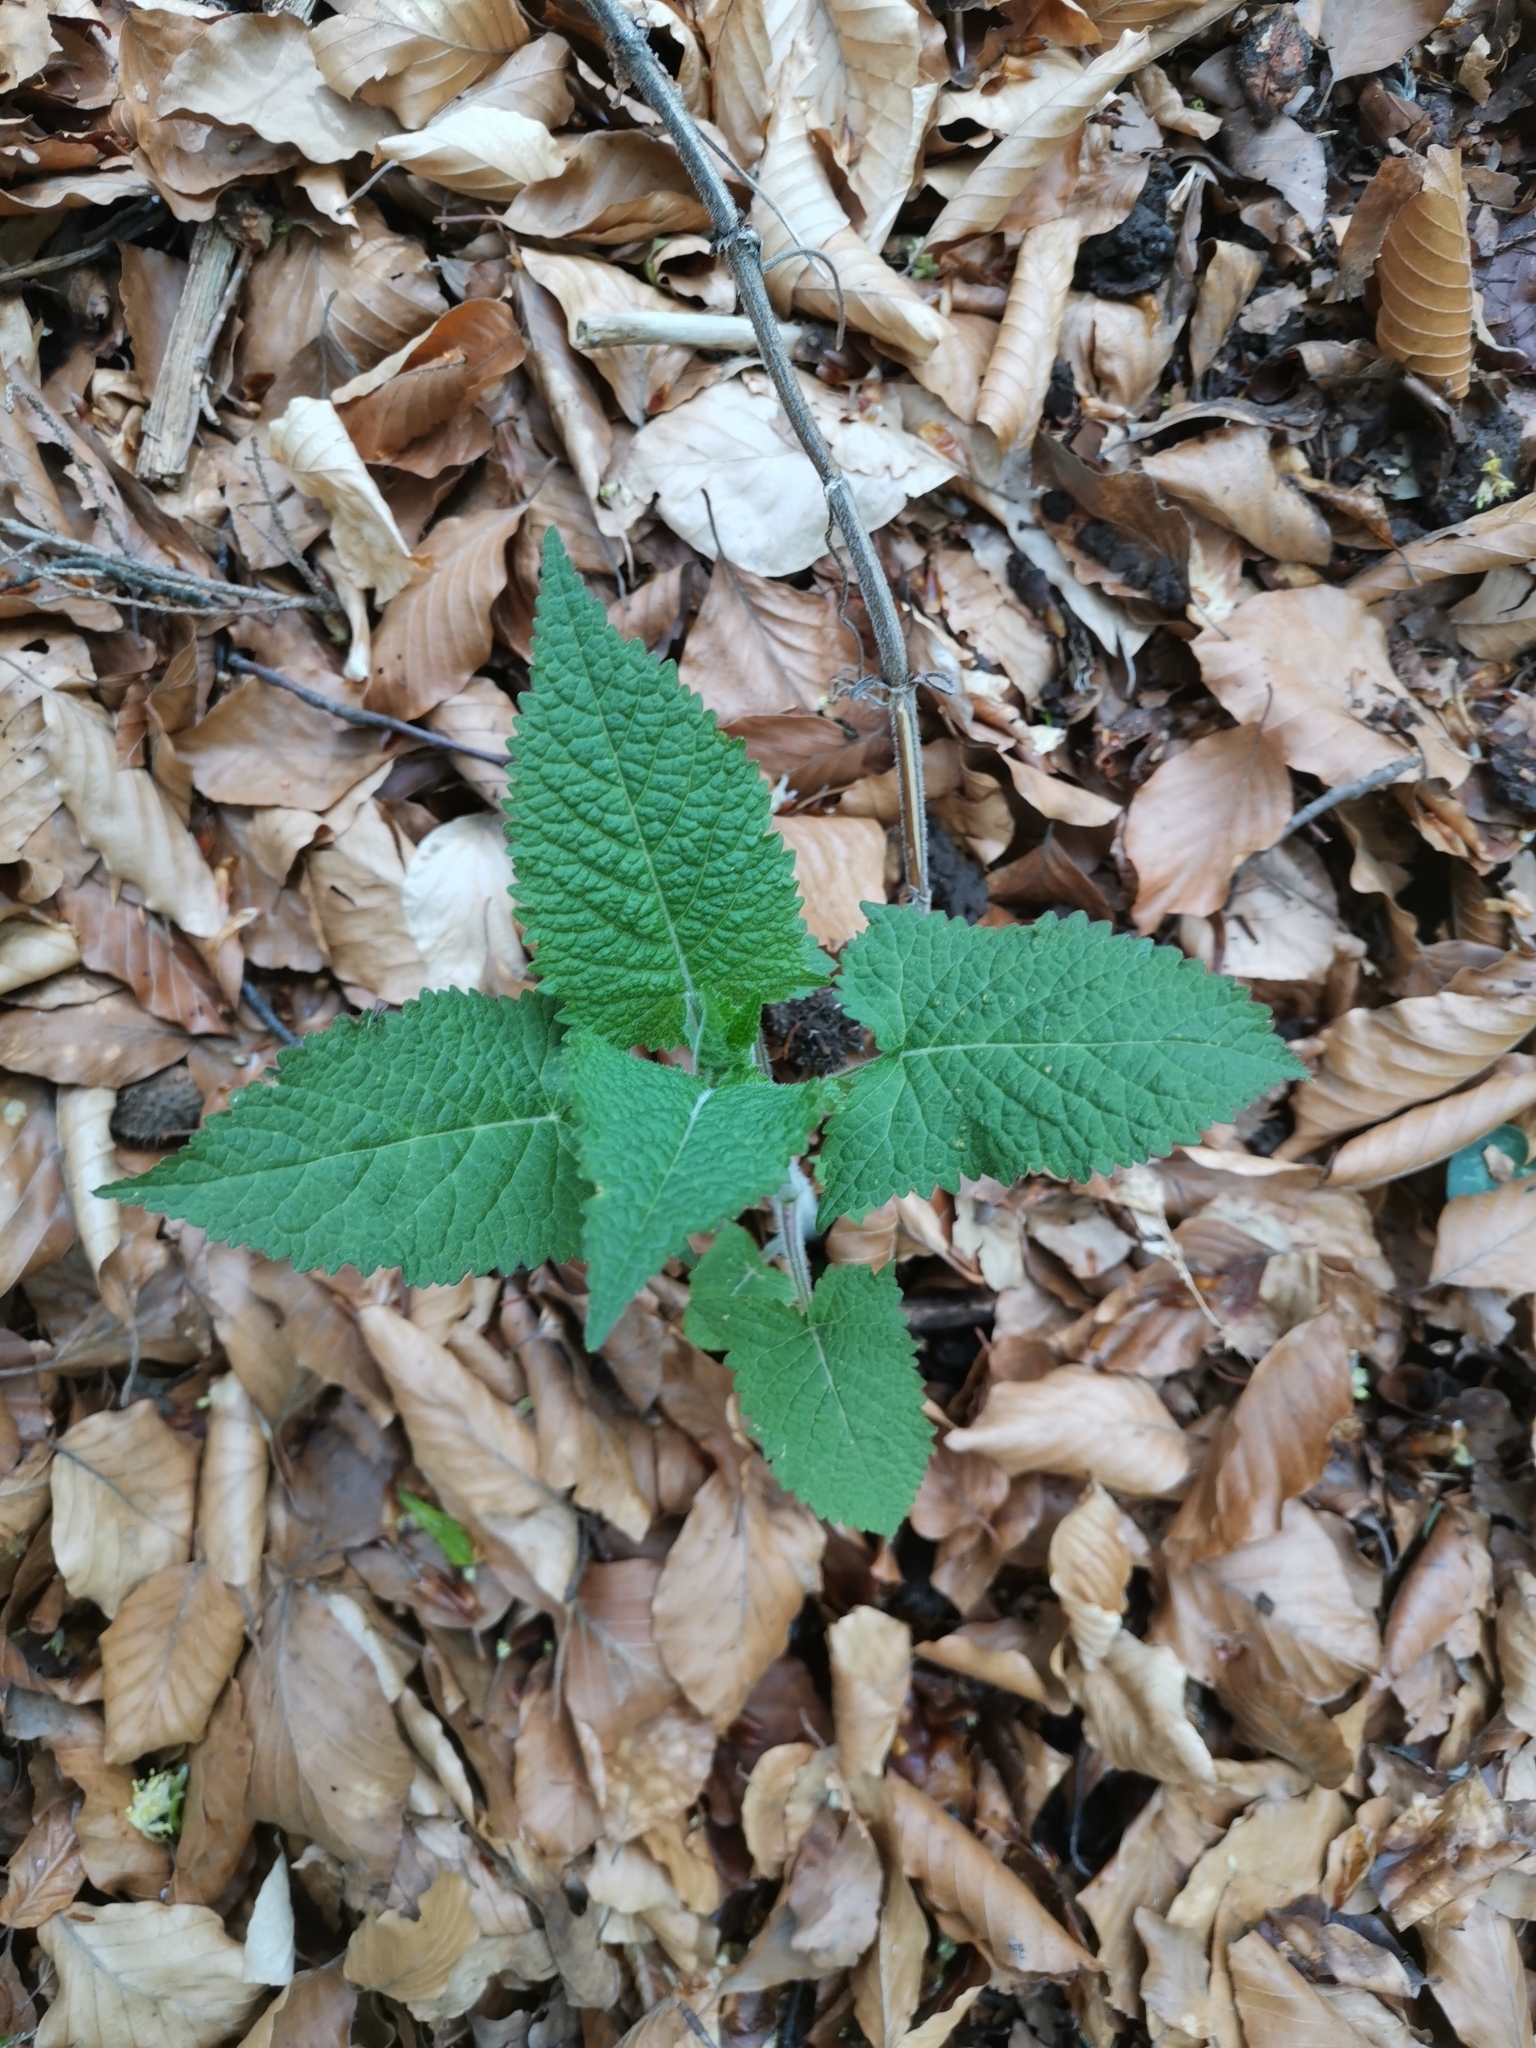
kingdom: Plantae
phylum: Tracheophyta
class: Magnoliopsida
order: Lamiales
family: Lamiaceae
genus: Salvia
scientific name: Salvia glutinosa
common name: Sticky clary
